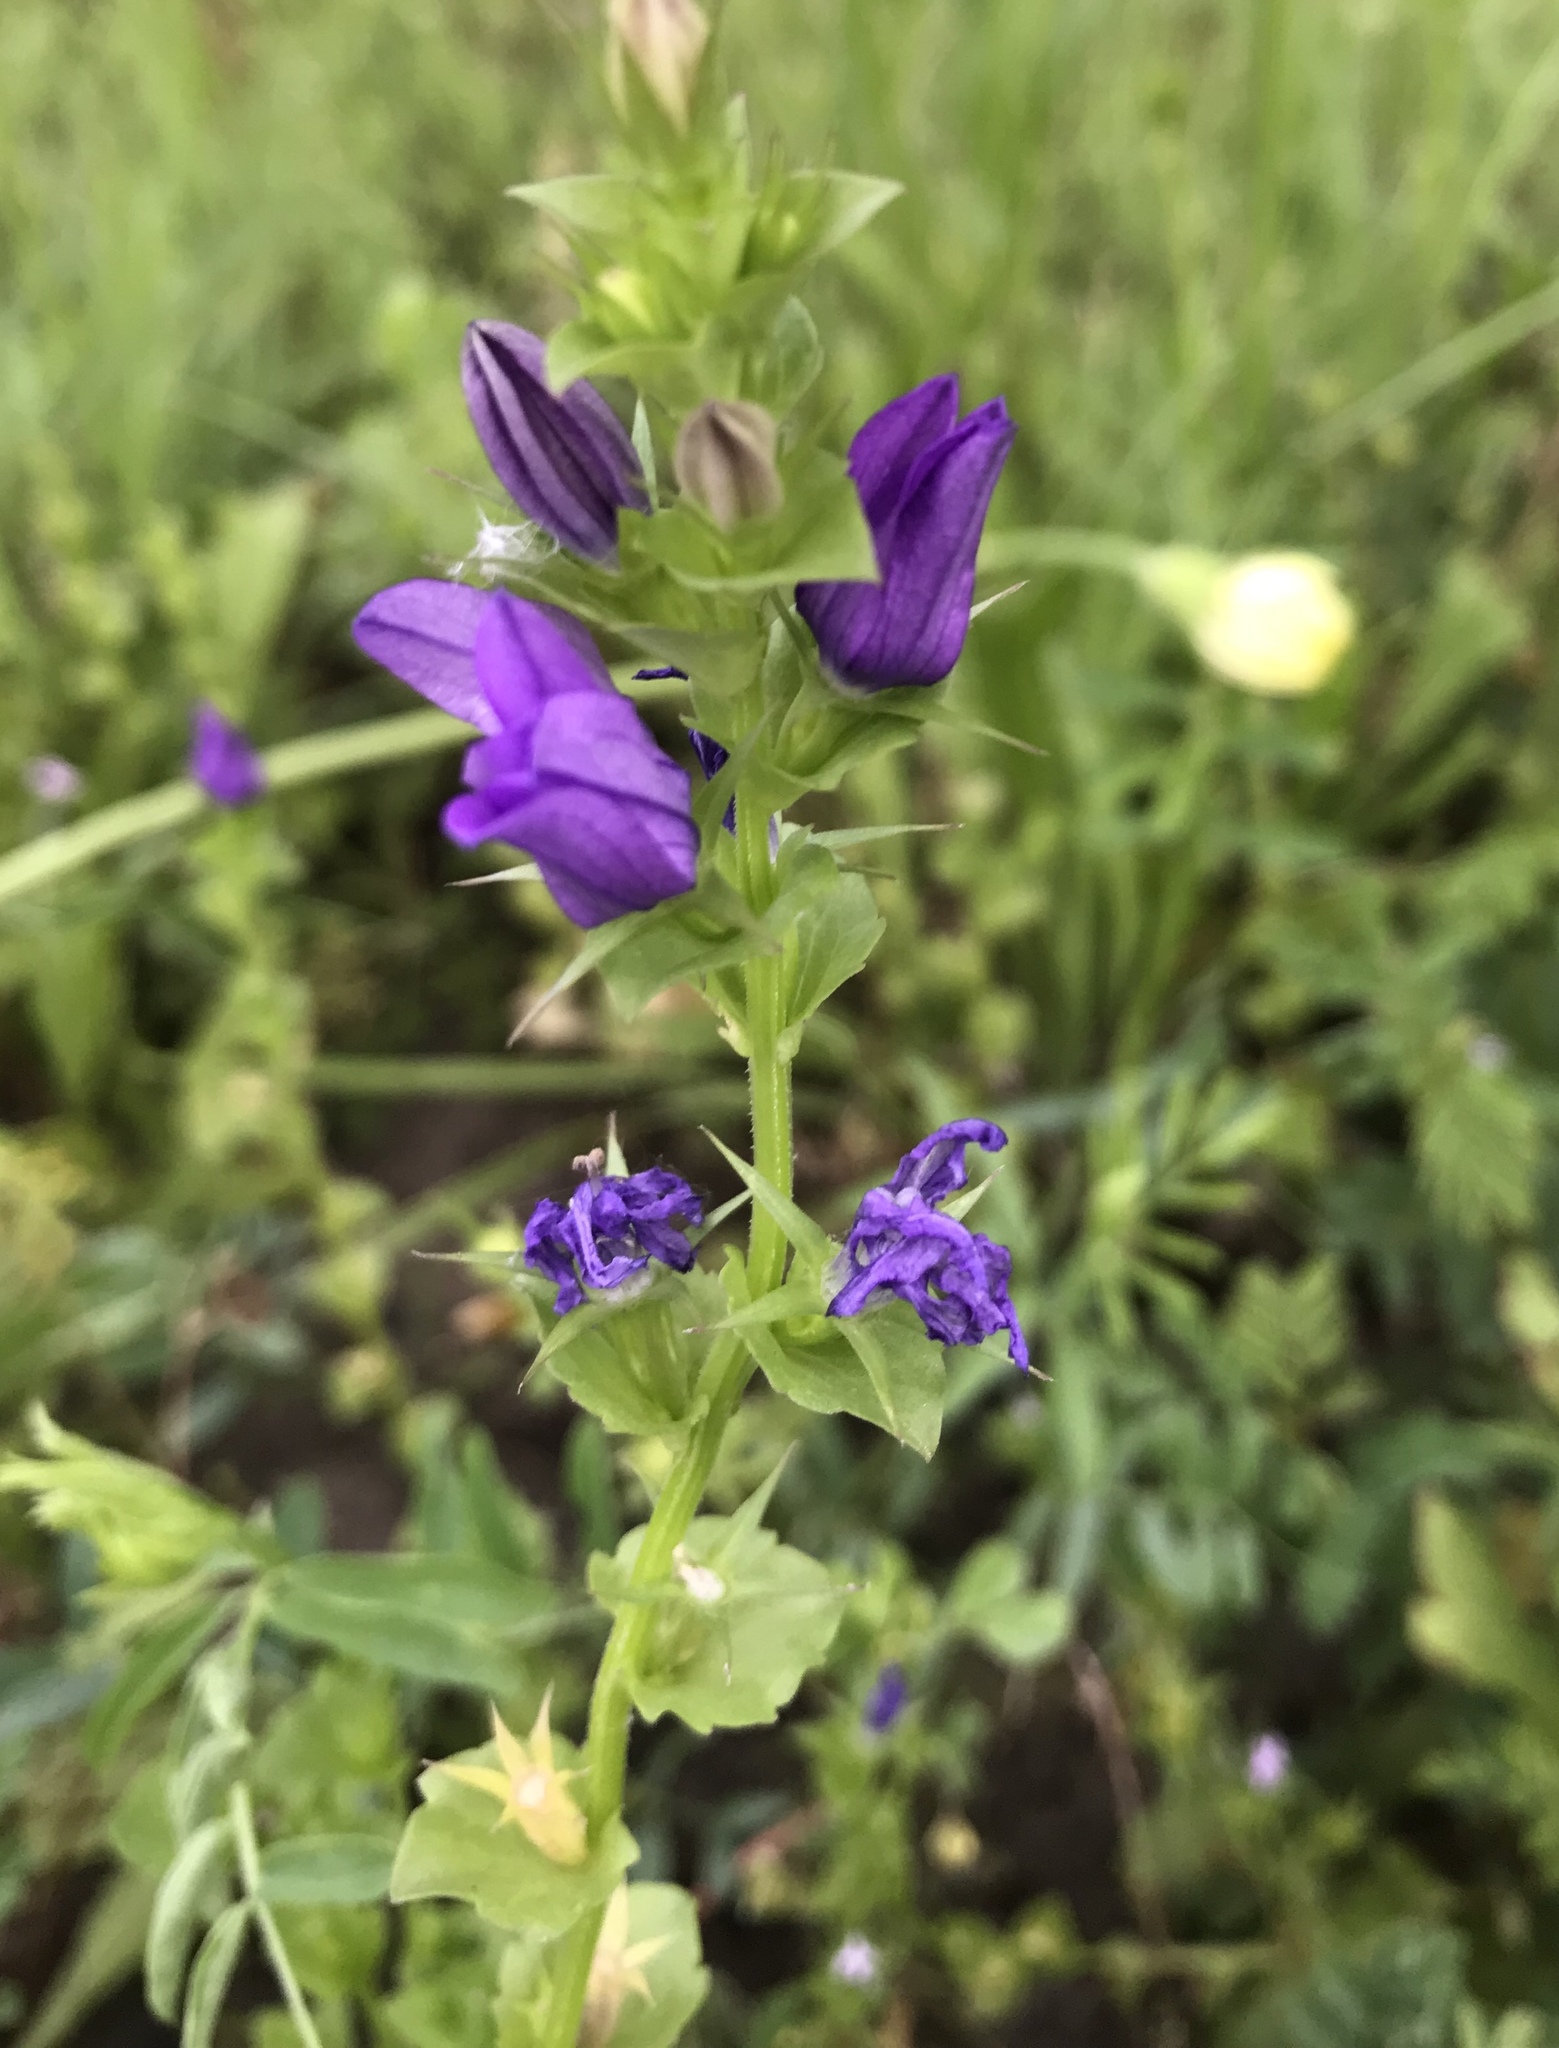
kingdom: Plantae
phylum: Tracheophyta
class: Magnoliopsida
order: Asterales
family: Campanulaceae
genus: Triodanis
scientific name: Triodanis perfoliata
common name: Clasping venus' looking-glass
